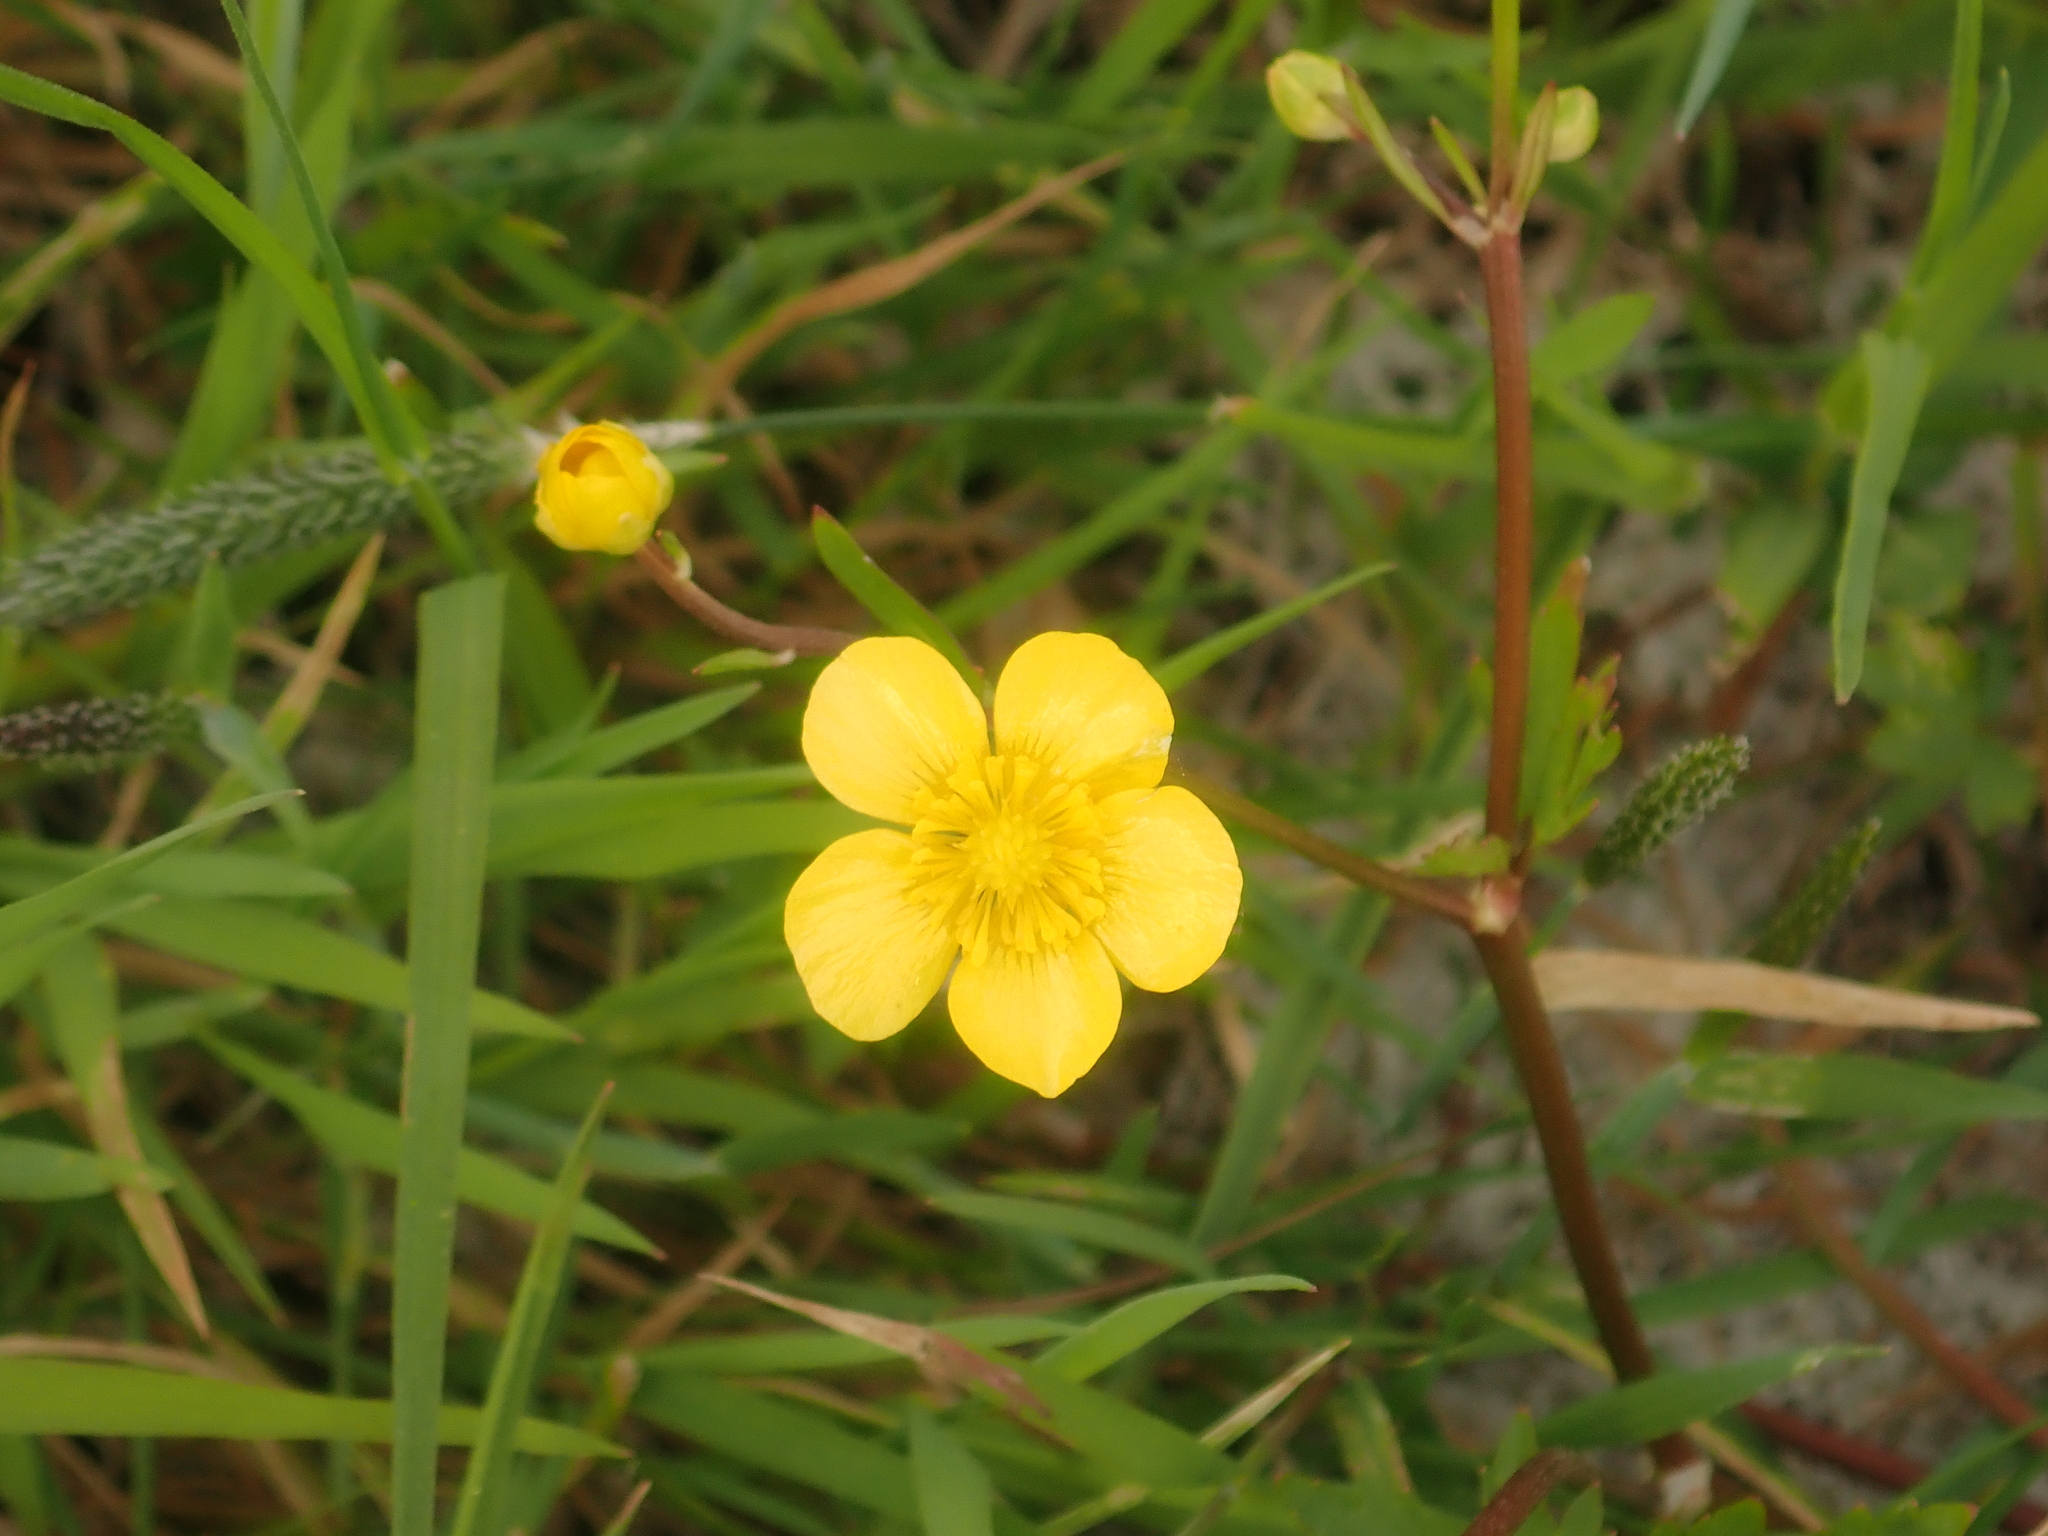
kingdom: Plantae
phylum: Tracheophyta
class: Magnoliopsida
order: Ranunculales
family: Ranunculaceae
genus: Ranunculus
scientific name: Ranunculus repens
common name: Creeping buttercup
